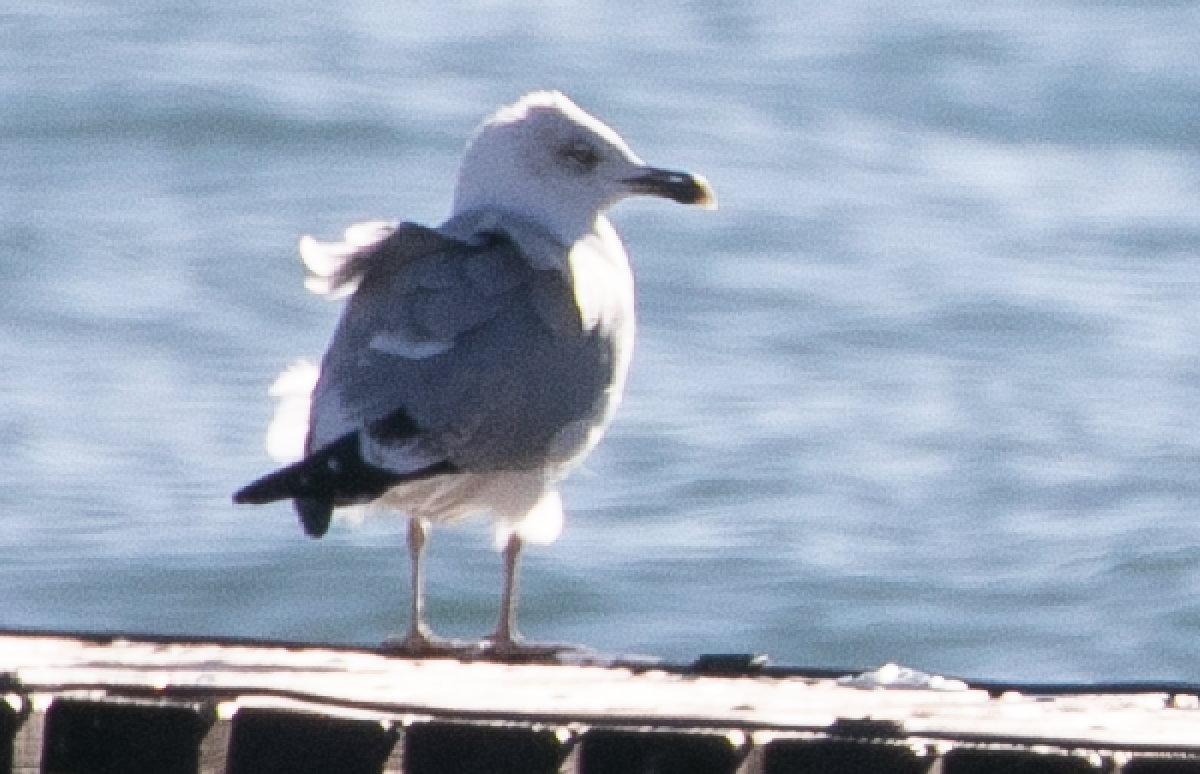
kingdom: Animalia
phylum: Chordata
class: Aves
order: Charadriiformes
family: Laridae
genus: Larus
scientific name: Larus michahellis
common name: Yellow-legged gull
